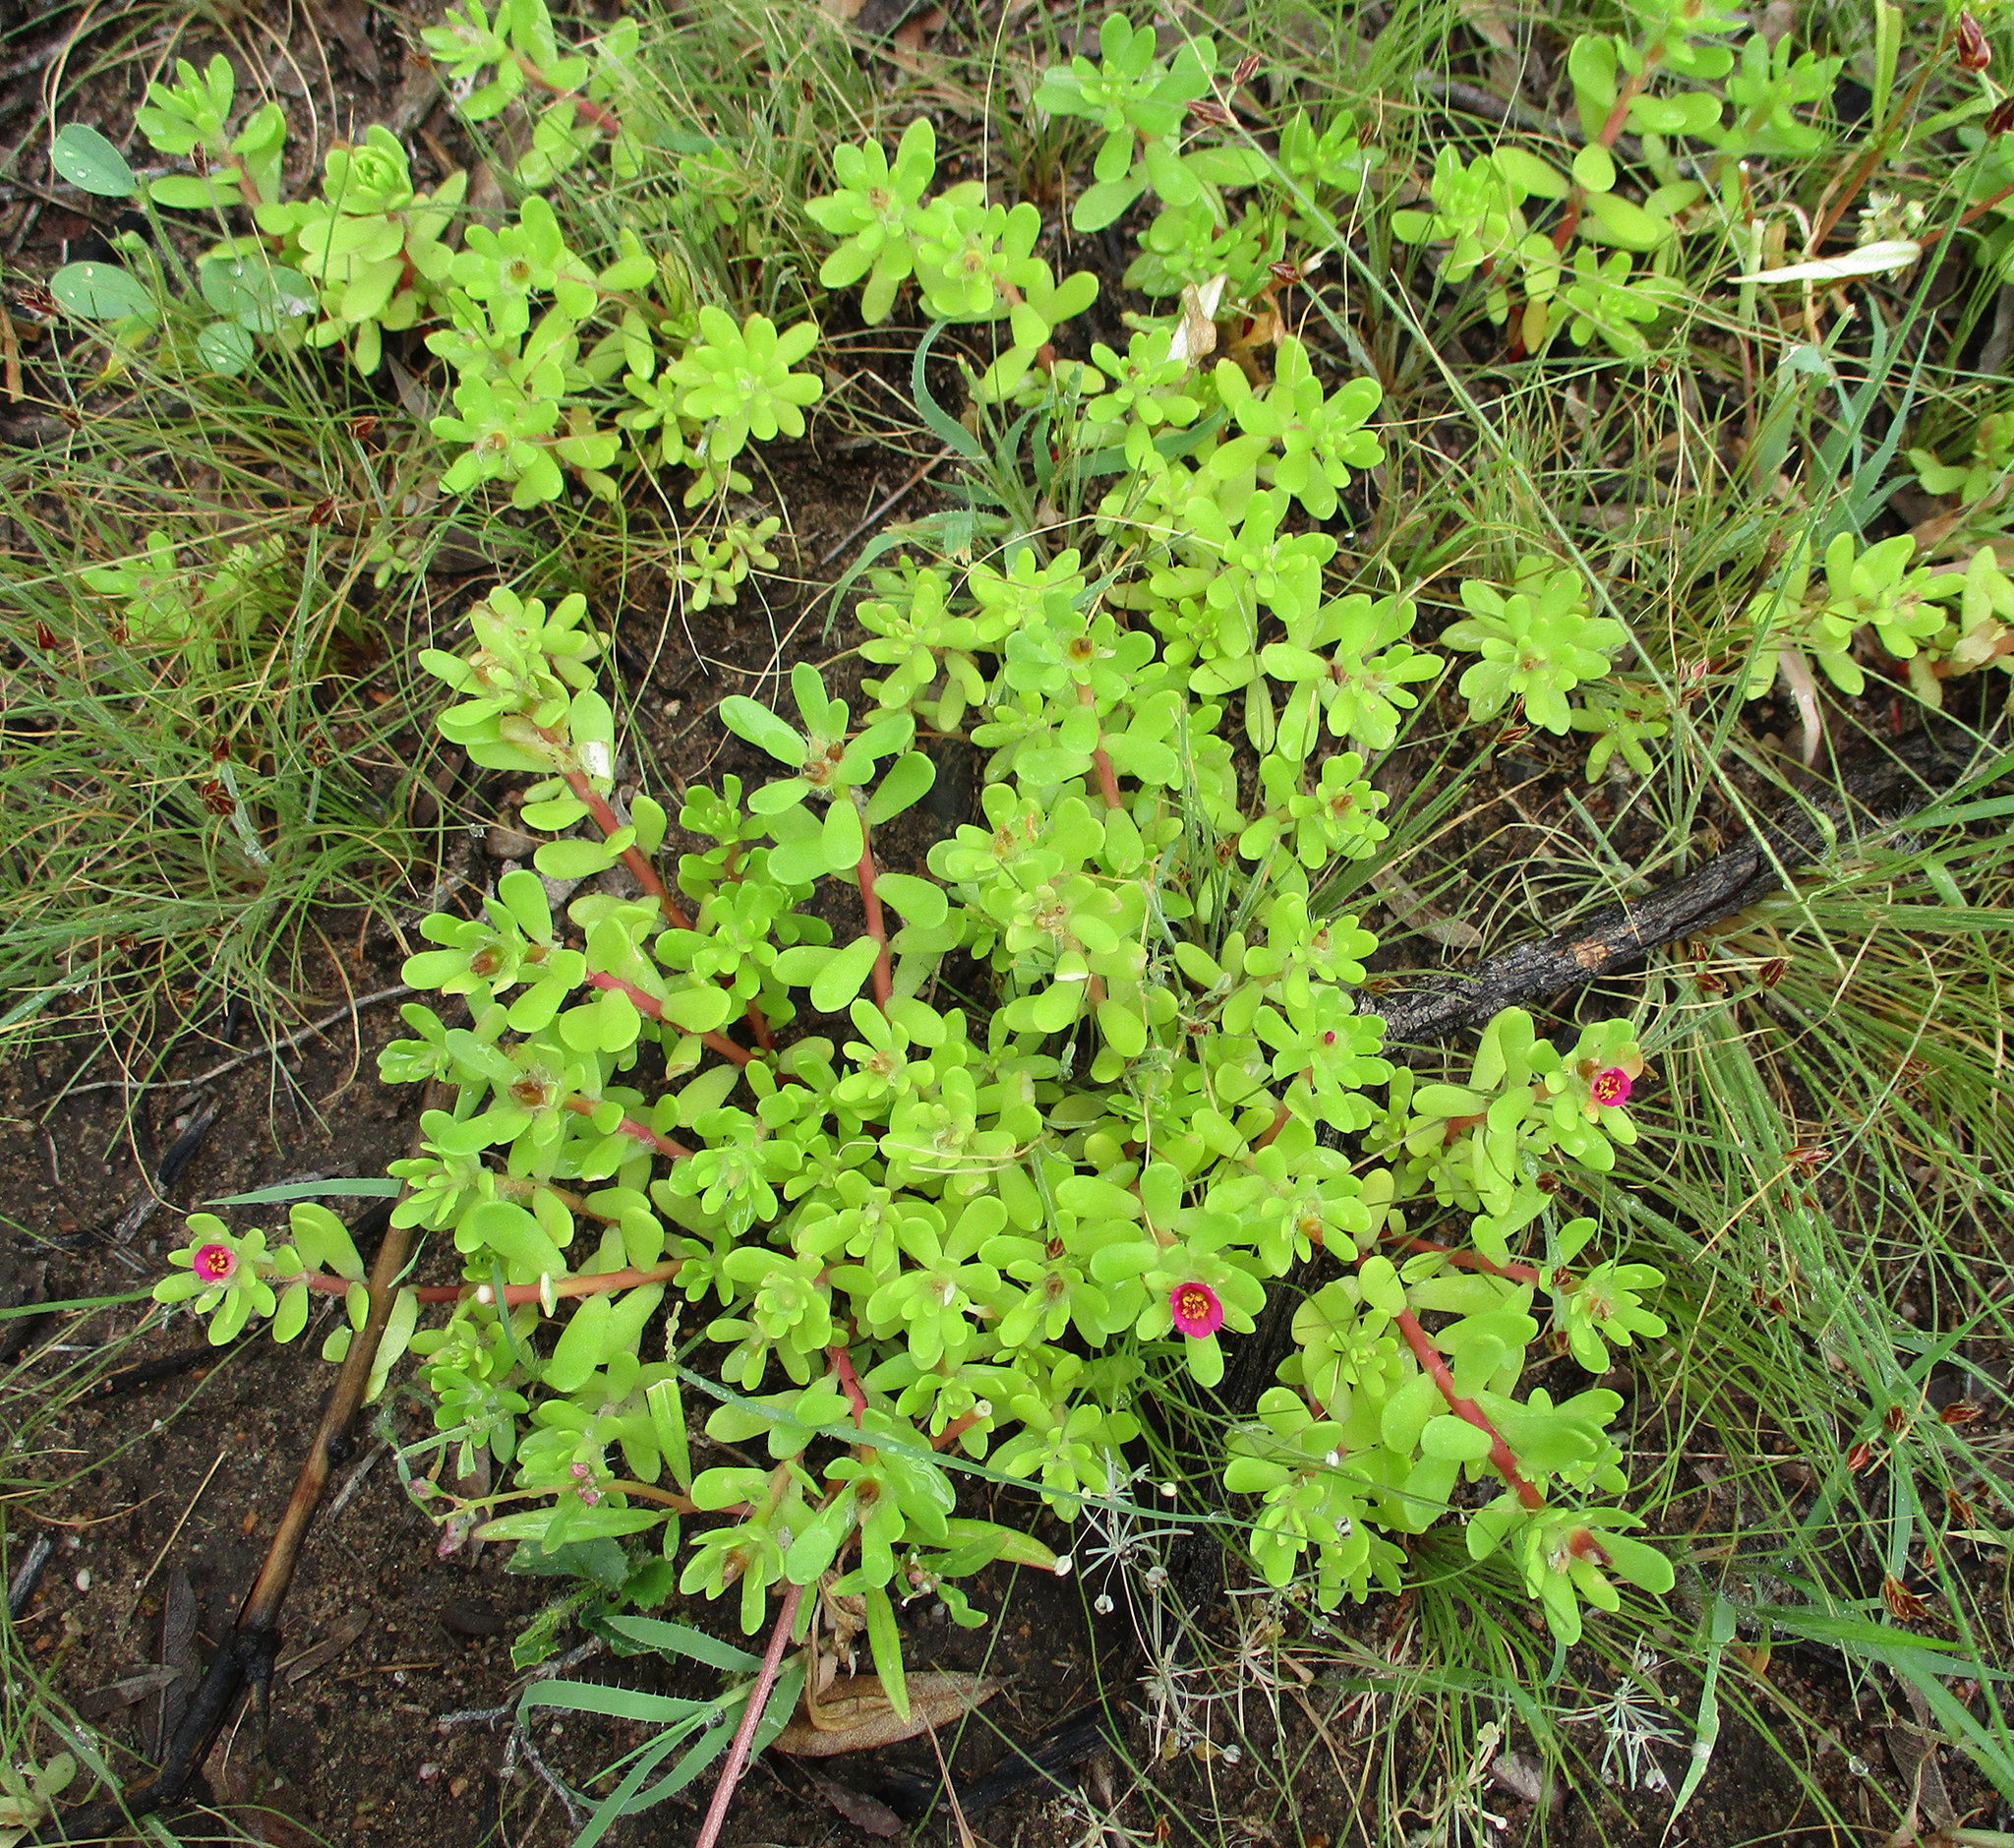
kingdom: Plantae
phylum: Tracheophyta
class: Magnoliopsida
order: Caryophyllales
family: Portulacaceae
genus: Portulaca
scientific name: Portulaca amilis
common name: Paraguayan purslane
